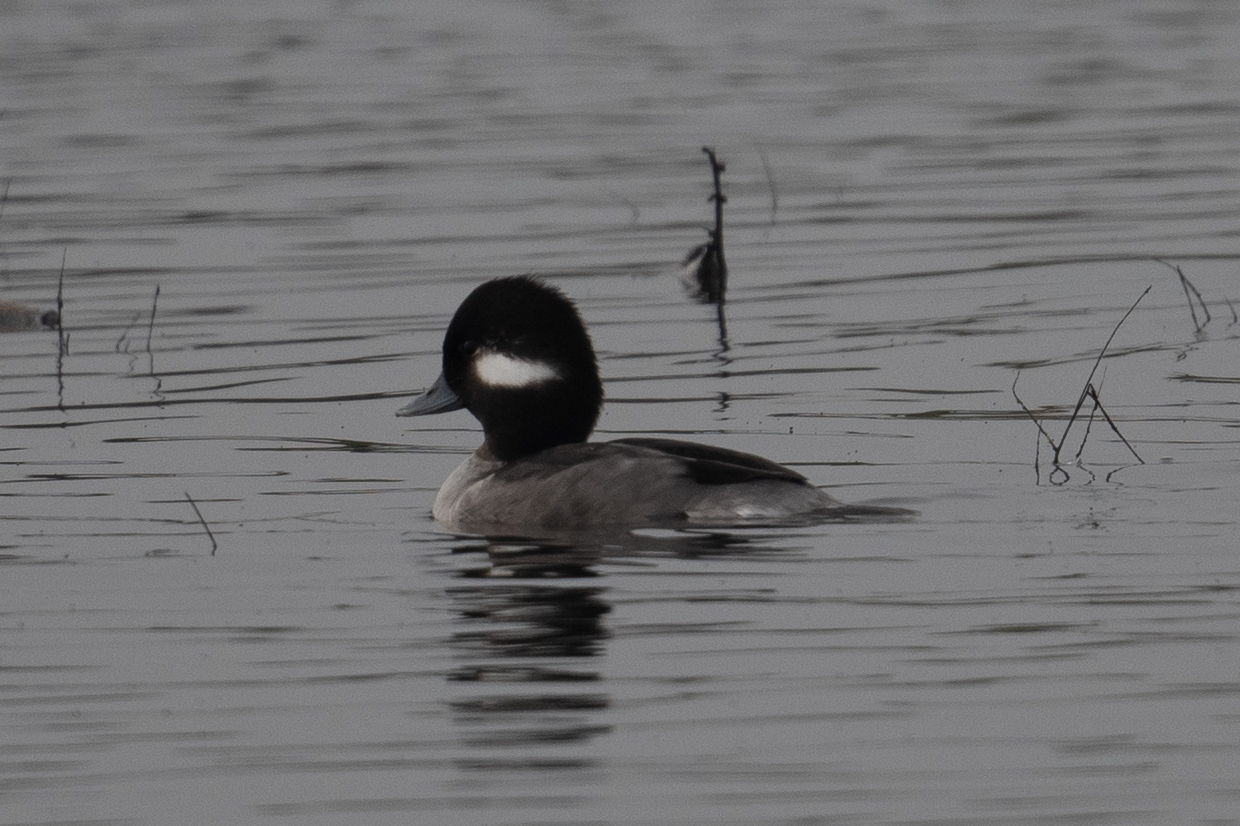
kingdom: Animalia
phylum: Chordata
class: Aves
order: Anseriformes
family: Anatidae
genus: Bucephala
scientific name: Bucephala albeola
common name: Bufflehead
